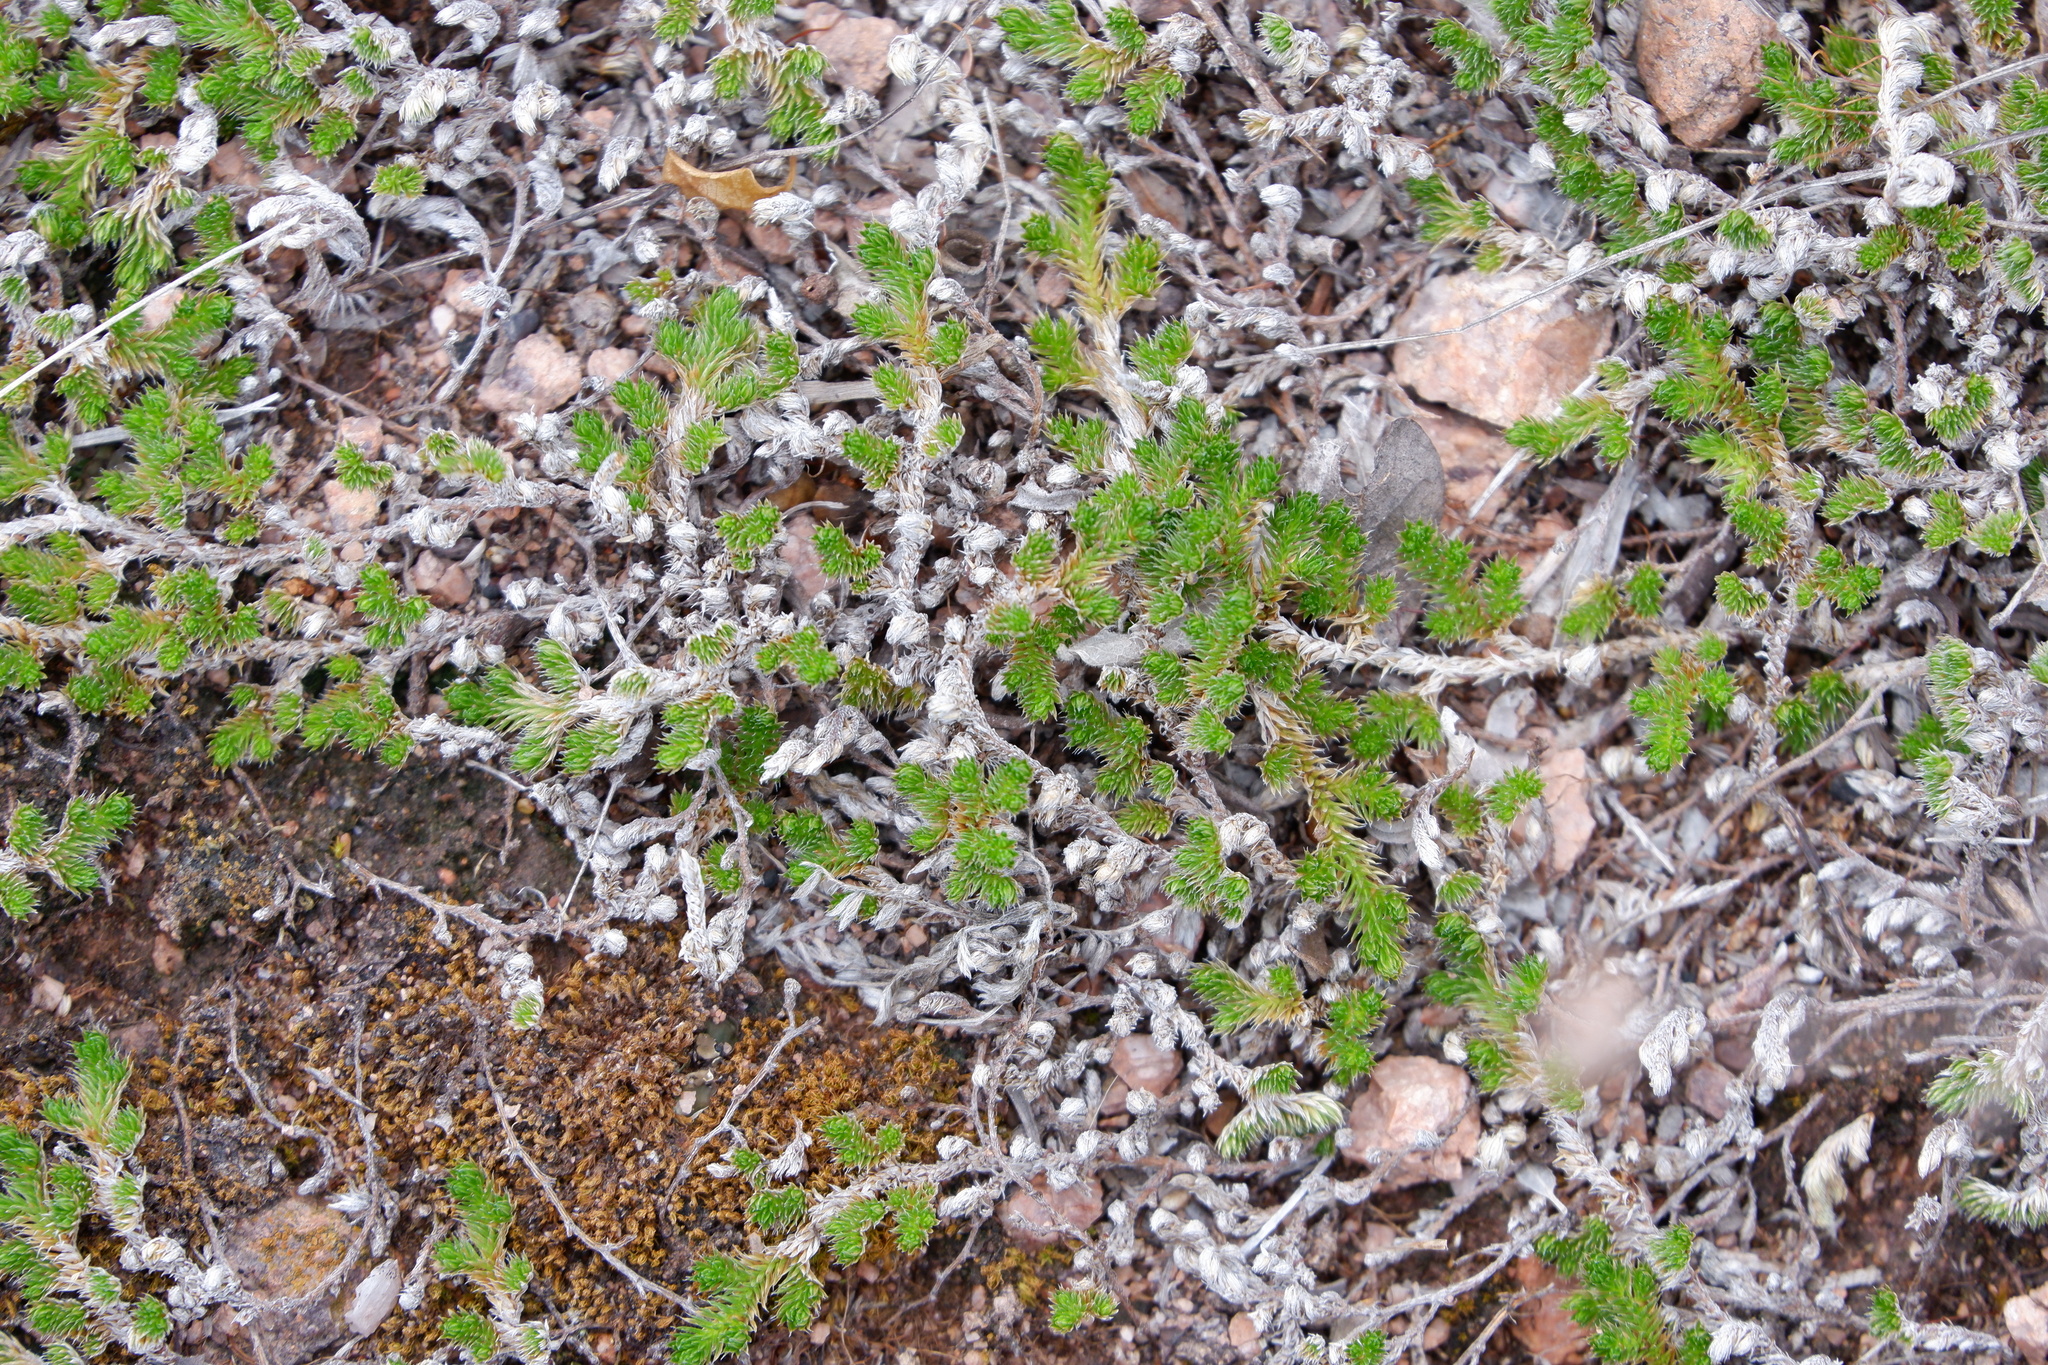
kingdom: Plantae
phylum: Tracheophyta
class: Lycopodiopsida
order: Selaginellales
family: Selaginellaceae
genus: Selaginella
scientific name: Selaginella peruviana
